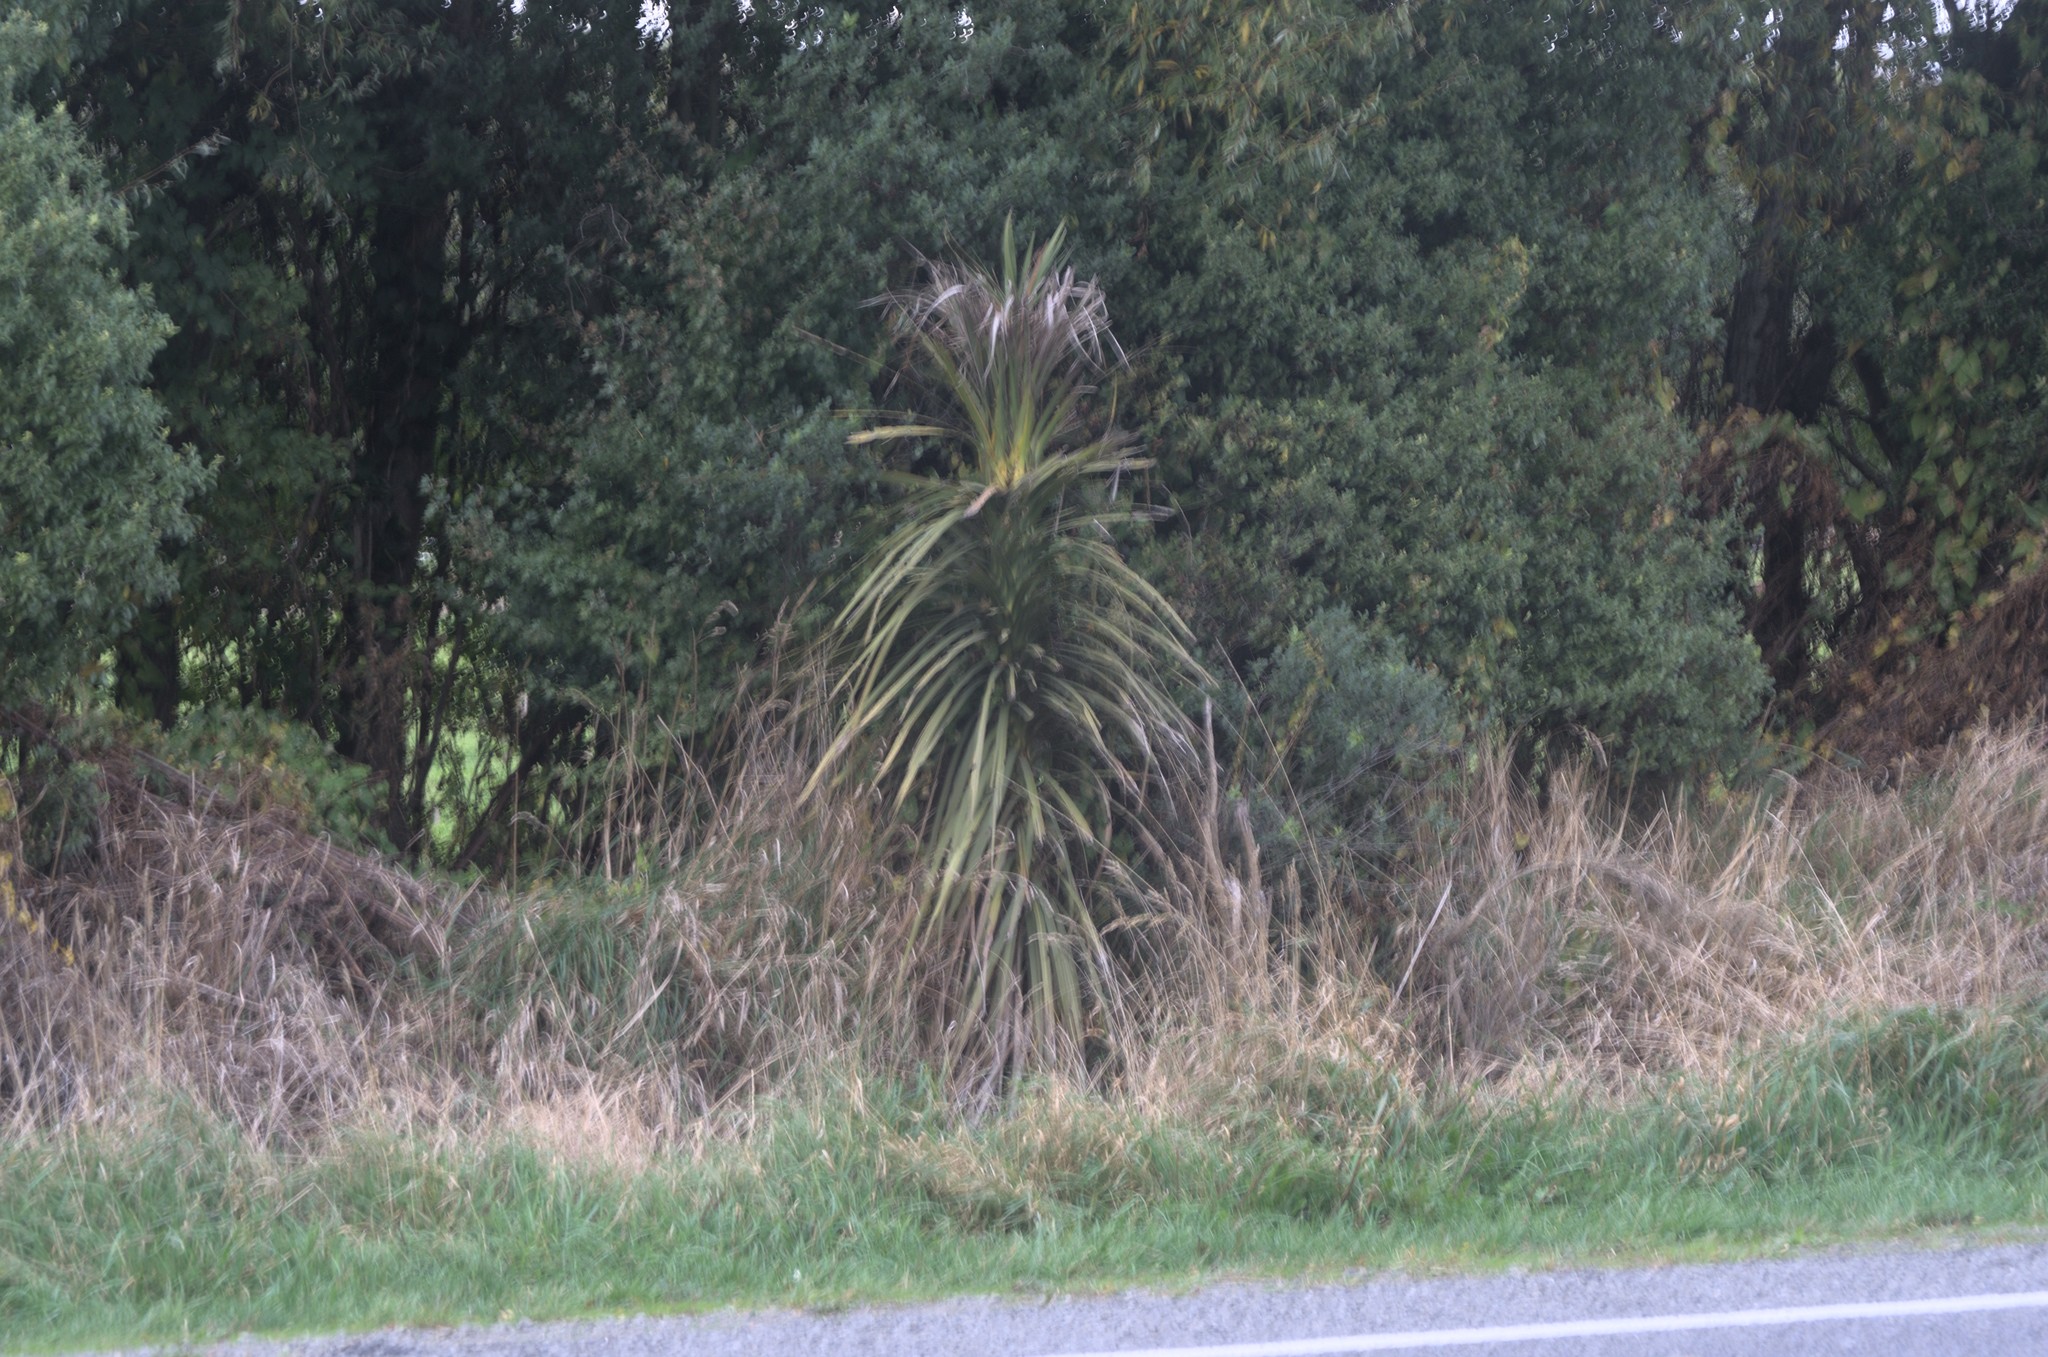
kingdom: Plantae
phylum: Tracheophyta
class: Liliopsida
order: Asparagales
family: Asparagaceae
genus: Cordyline
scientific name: Cordyline australis
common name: Cabbage-palm
